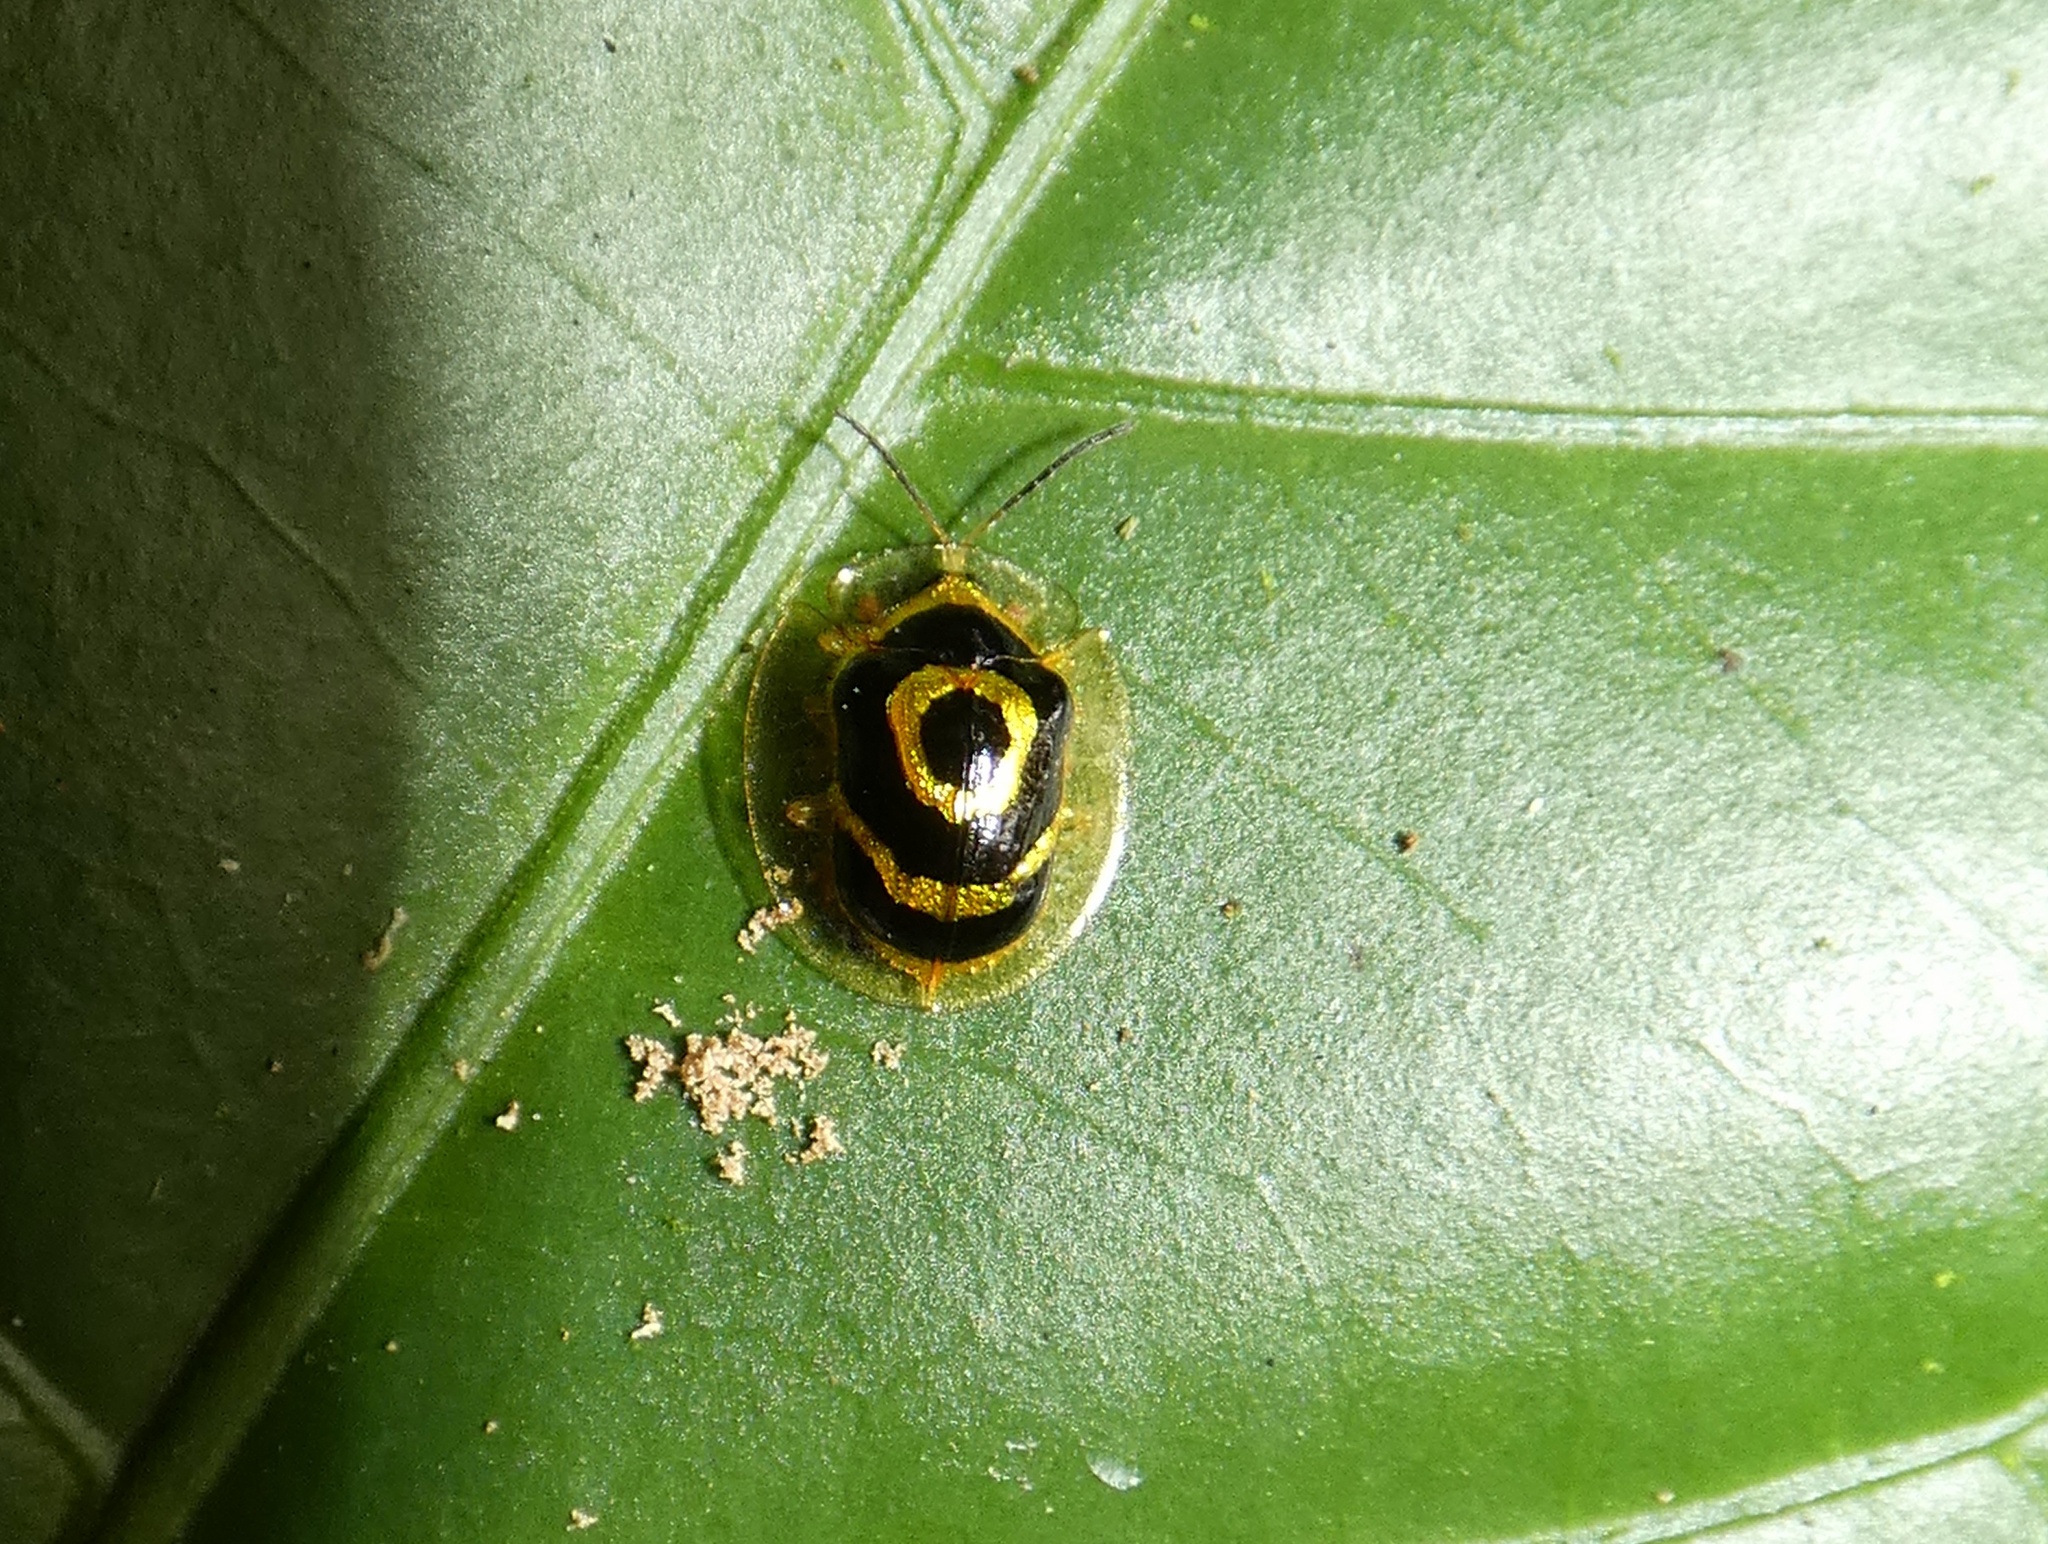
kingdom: Animalia
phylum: Arthropoda
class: Insecta
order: Coleoptera
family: Chrysomelidae
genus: Ischnocodia
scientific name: Ischnocodia annulus
